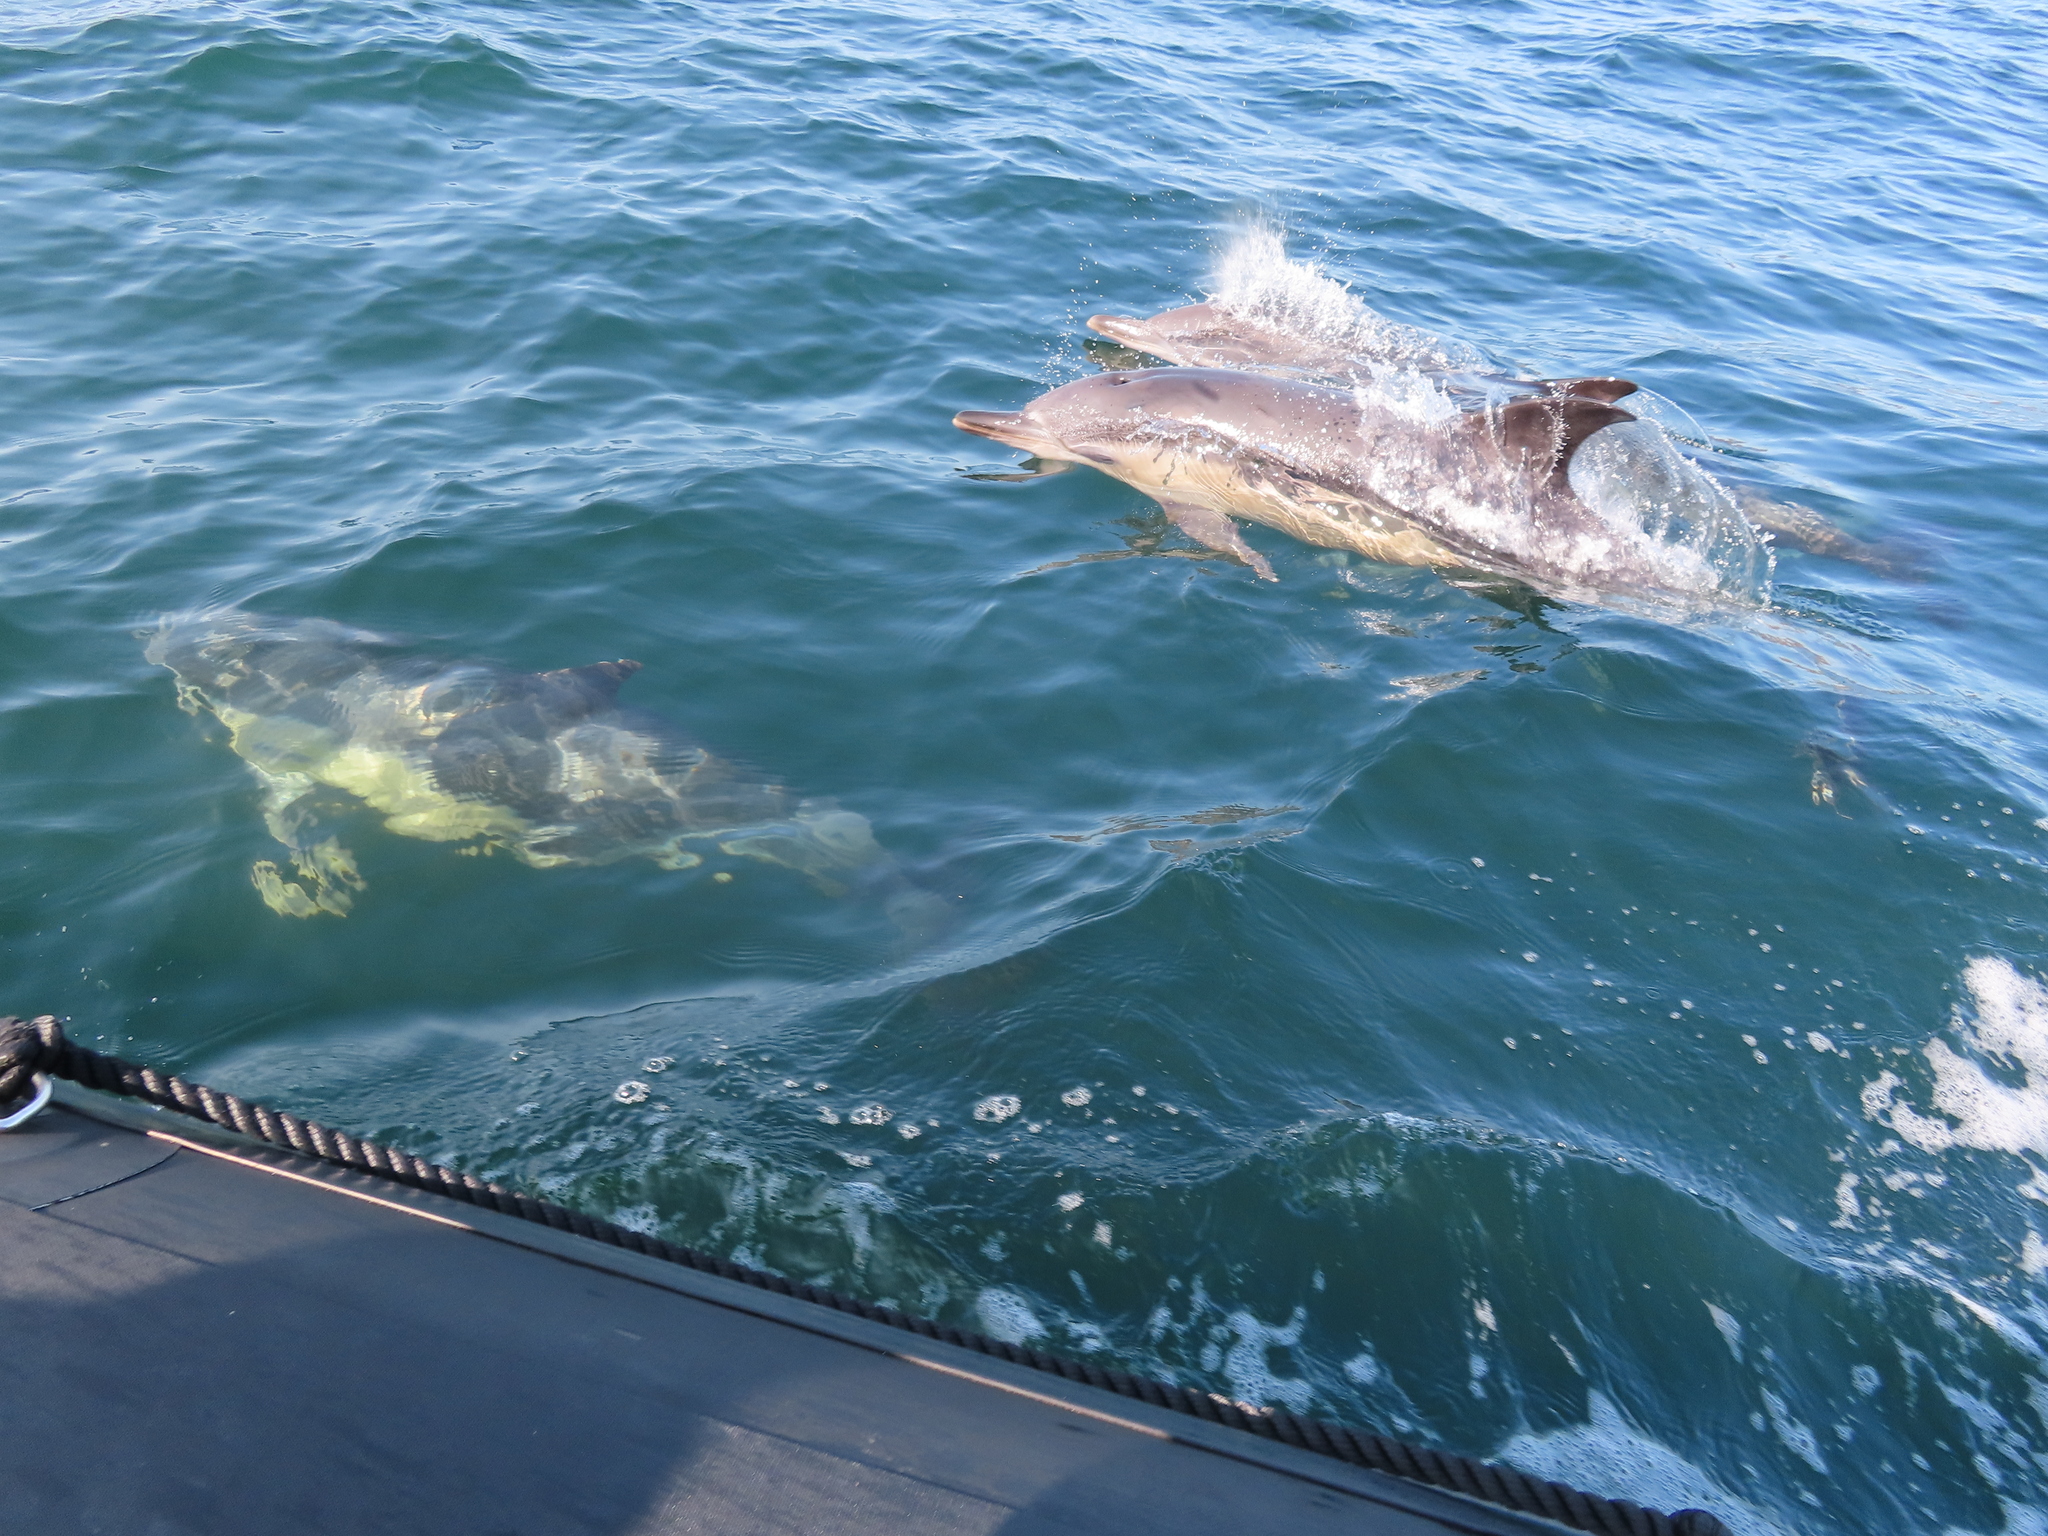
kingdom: Animalia
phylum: Chordata
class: Mammalia
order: Cetacea
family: Delphinidae
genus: Delphinus
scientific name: Delphinus delphis
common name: Common dolphin
